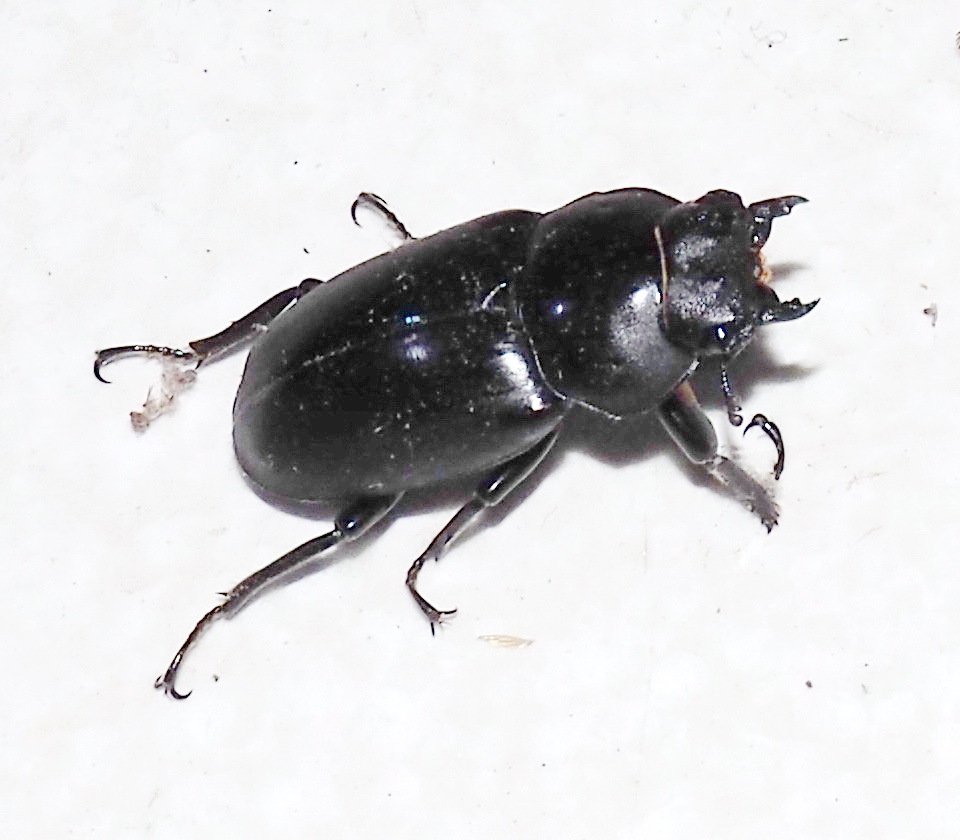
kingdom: Animalia
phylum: Arthropoda
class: Insecta
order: Coleoptera
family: Lucanidae
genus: Dorcus
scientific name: Dorcus rubrofemoratus
